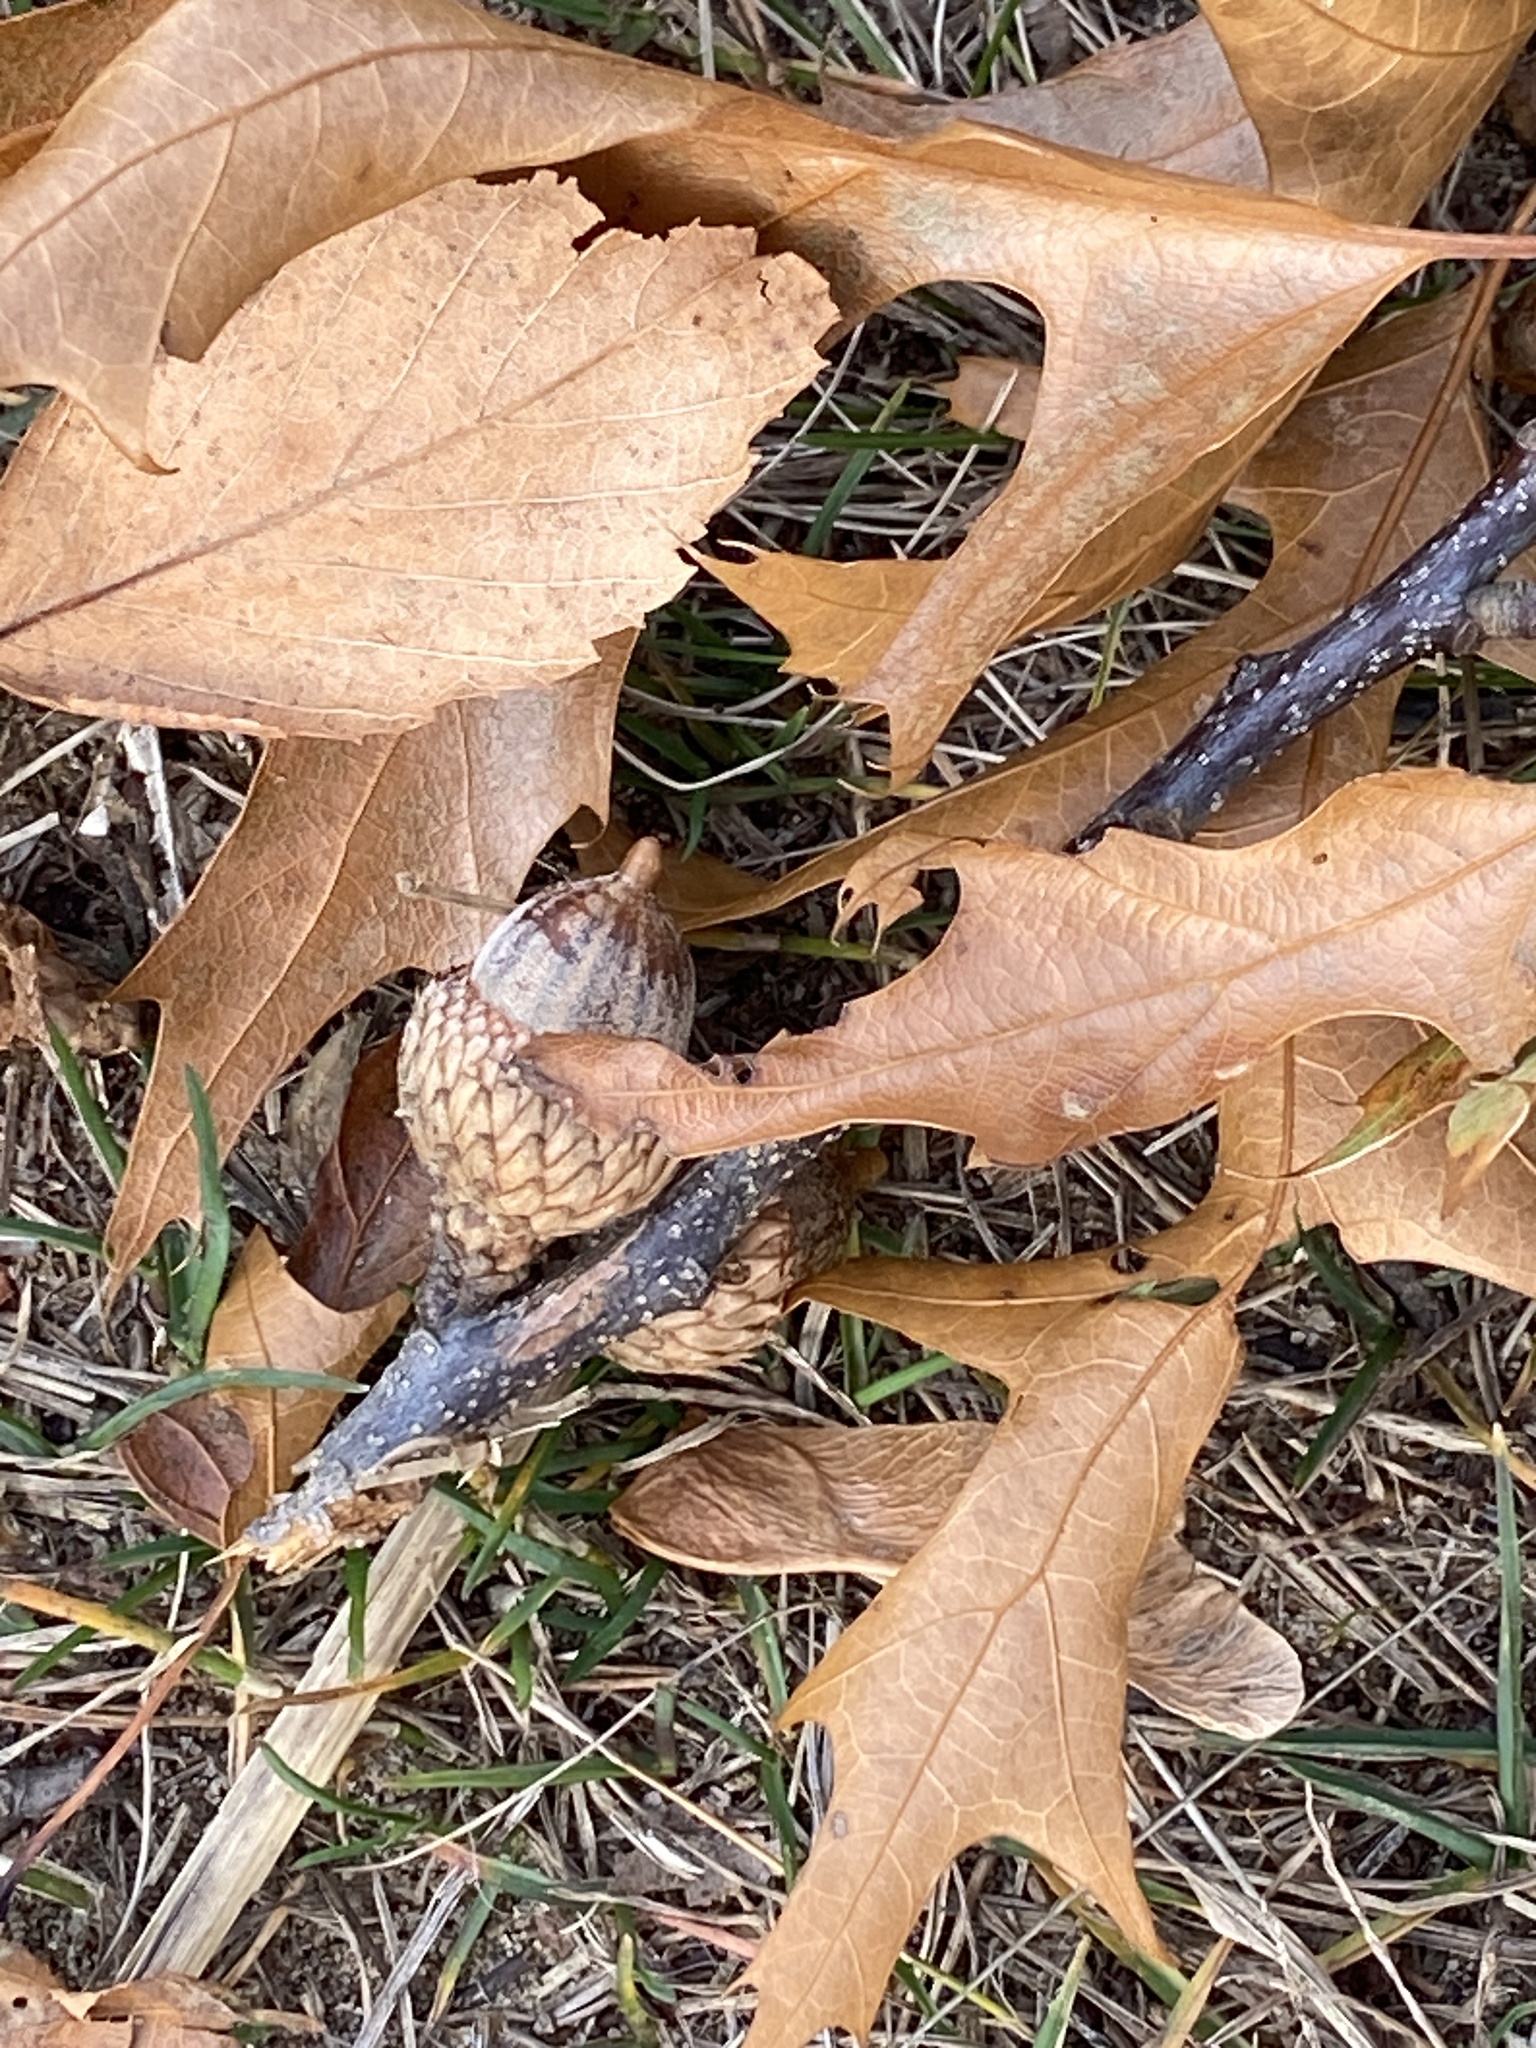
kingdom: Plantae
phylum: Tracheophyta
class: Magnoliopsida
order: Fagales
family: Fagaceae
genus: Quercus
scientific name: Quercus velutina
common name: Black oak
